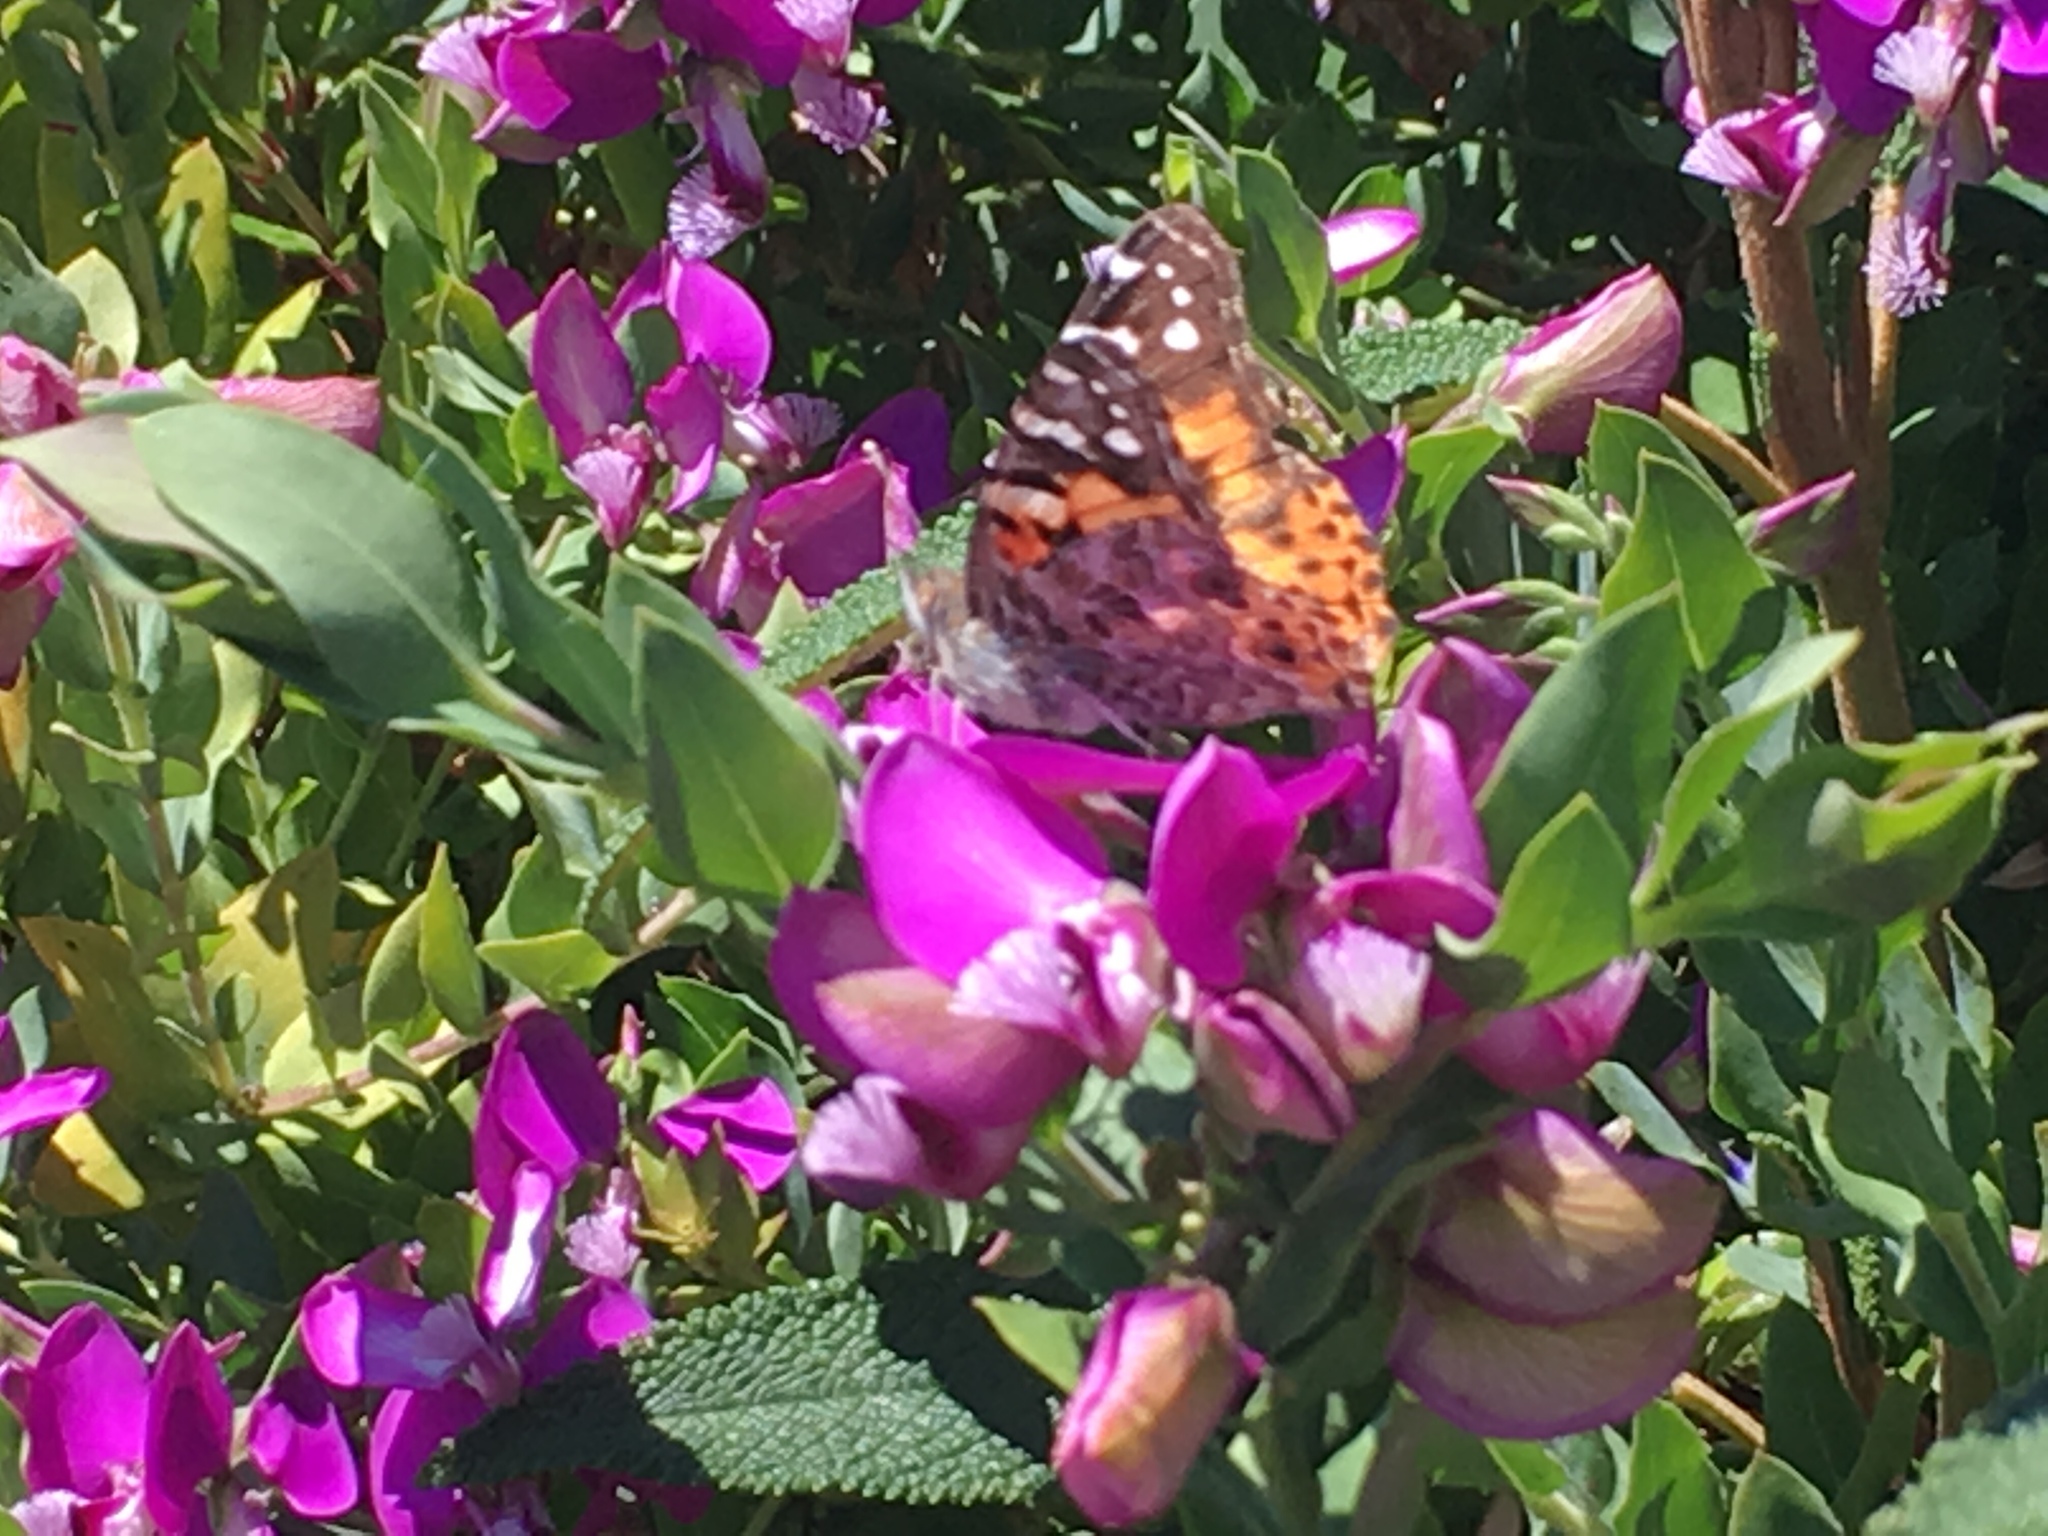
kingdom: Animalia
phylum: Arthropoda
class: Insecta
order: Lepidoptera
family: Nymphalidae
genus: Vanessa
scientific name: Vanessa cardui
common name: Painted lady
